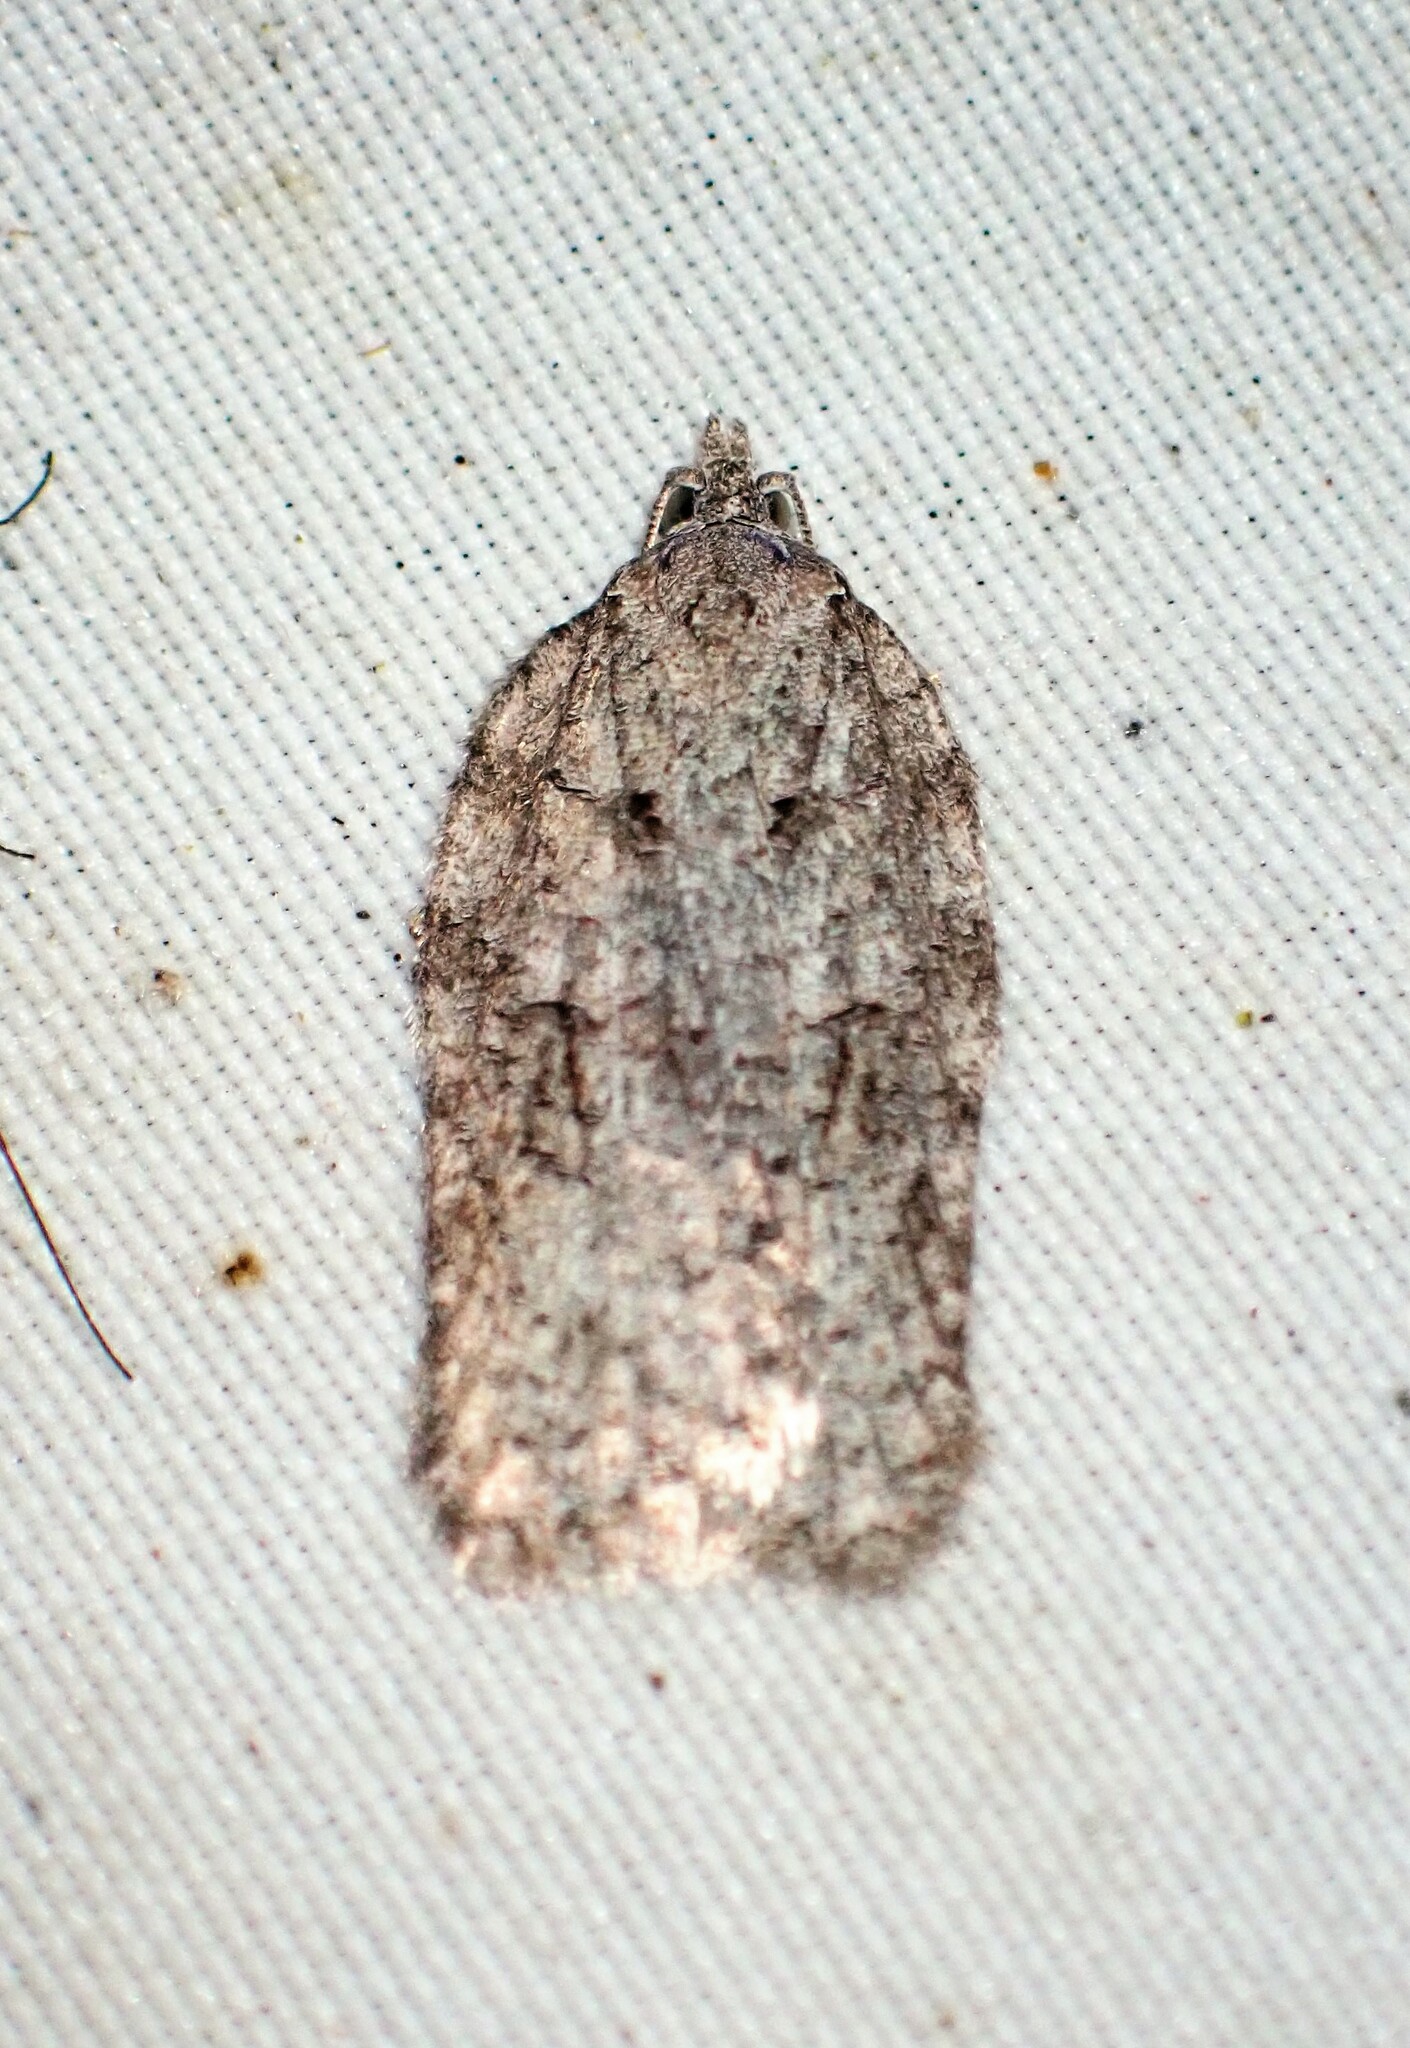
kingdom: Animalia
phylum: Arthropoda
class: Insecta
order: Lepidoptera
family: Tortricidae
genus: Acleris
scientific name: Acleris nigrolinea
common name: Black-lined acleris
